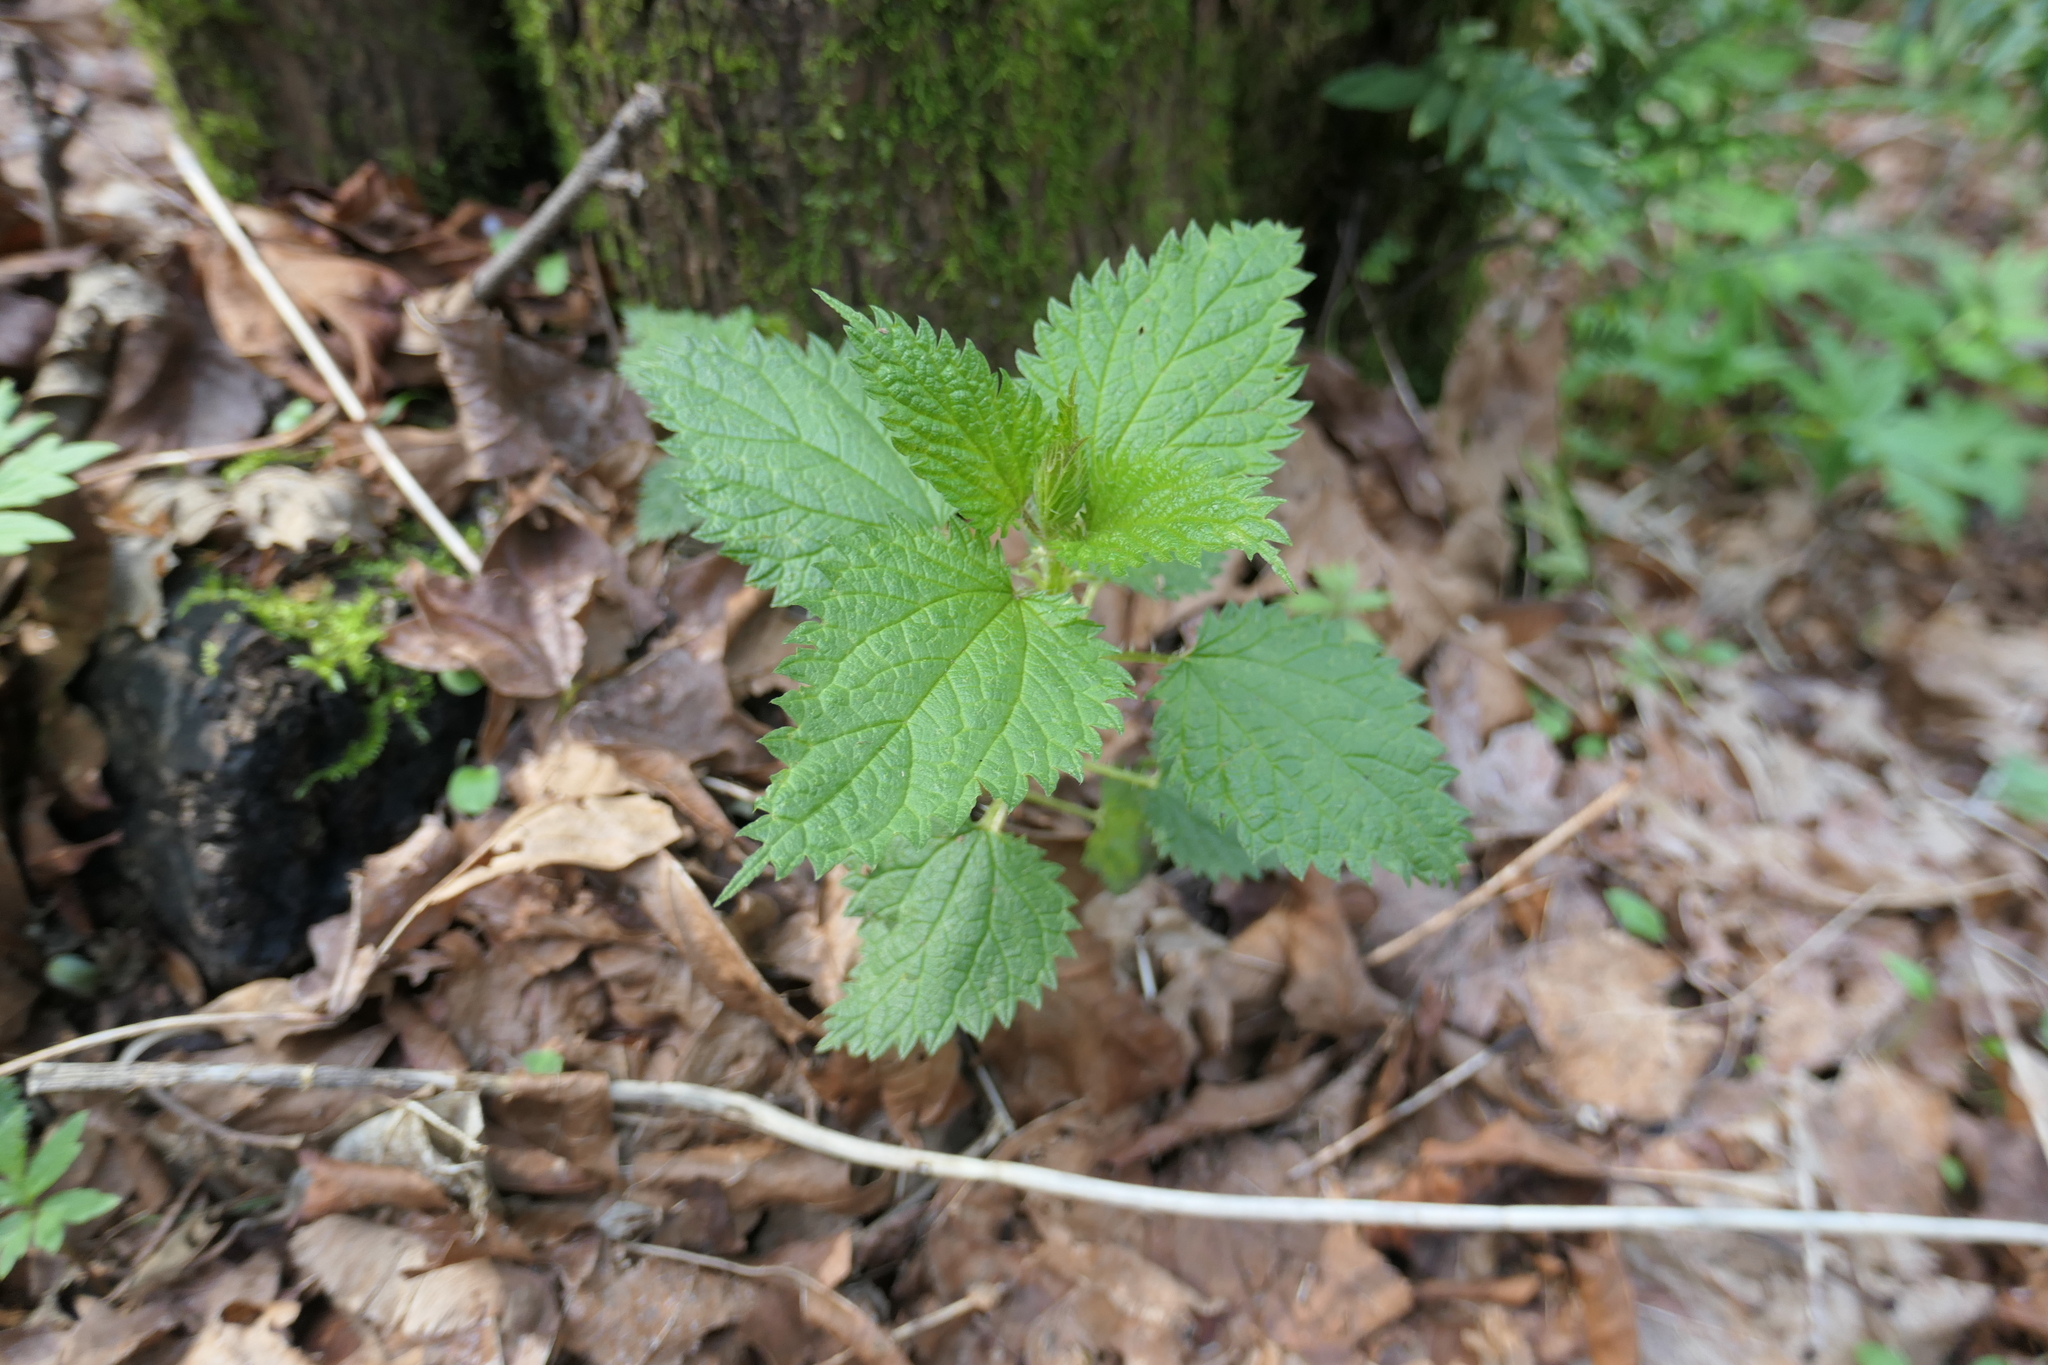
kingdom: Plantae
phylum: Tracheophyta
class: Magnoliopsida
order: Rosales
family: Urticaceae
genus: Urtica
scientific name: Urtica dioica
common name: Common nettle
